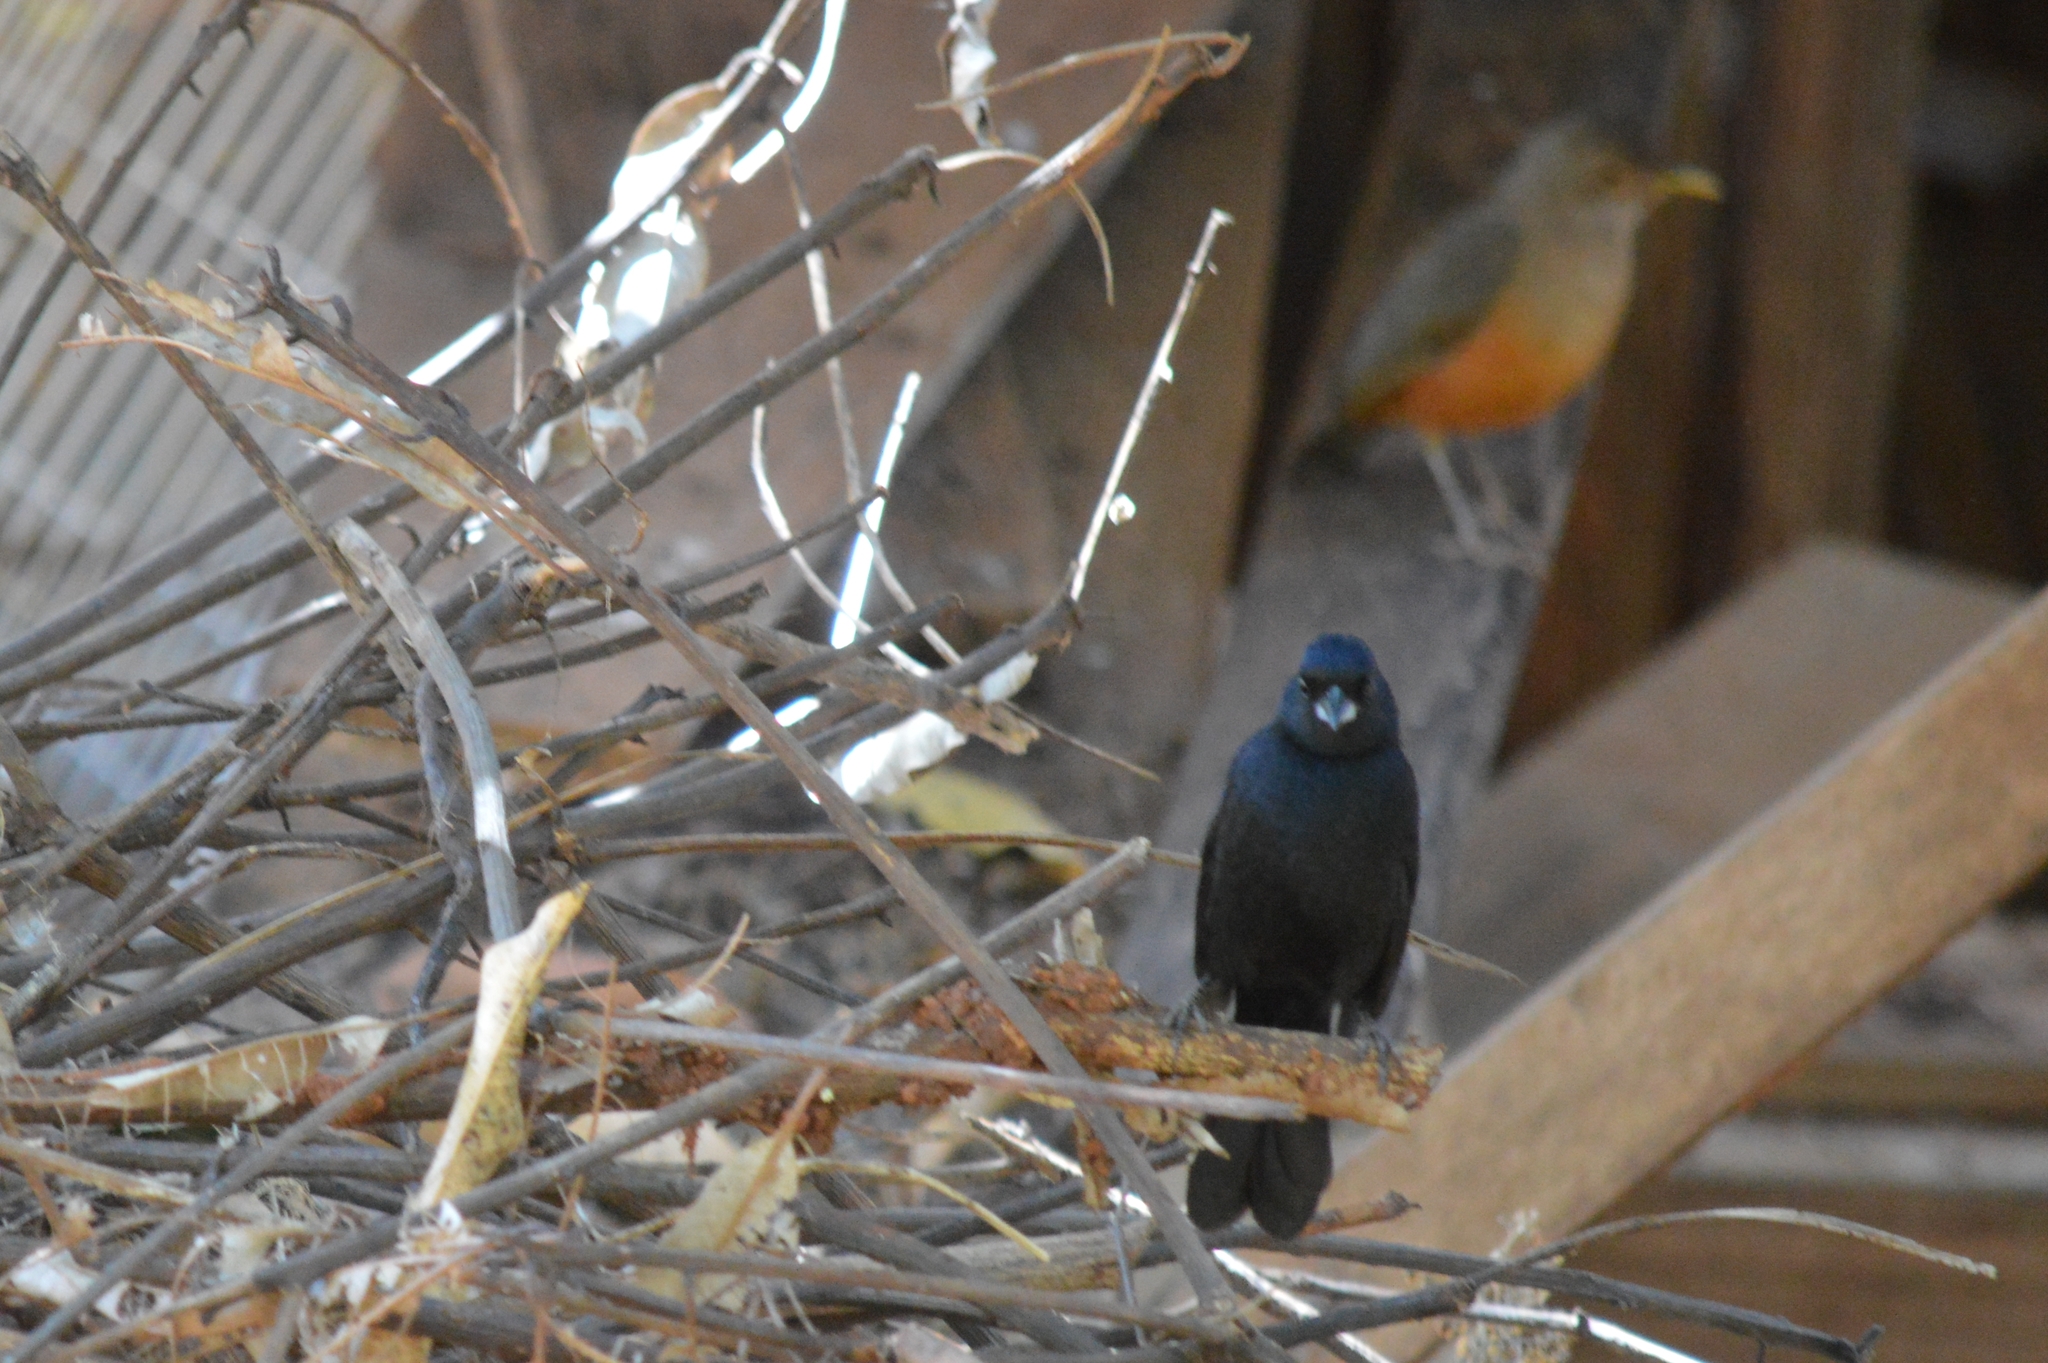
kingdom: Animalia
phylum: Chordata
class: Aves
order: Passeriformes
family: Thraupidae
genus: Tachyphonus
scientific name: Tachyphonus rufus
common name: White-lined tanager
